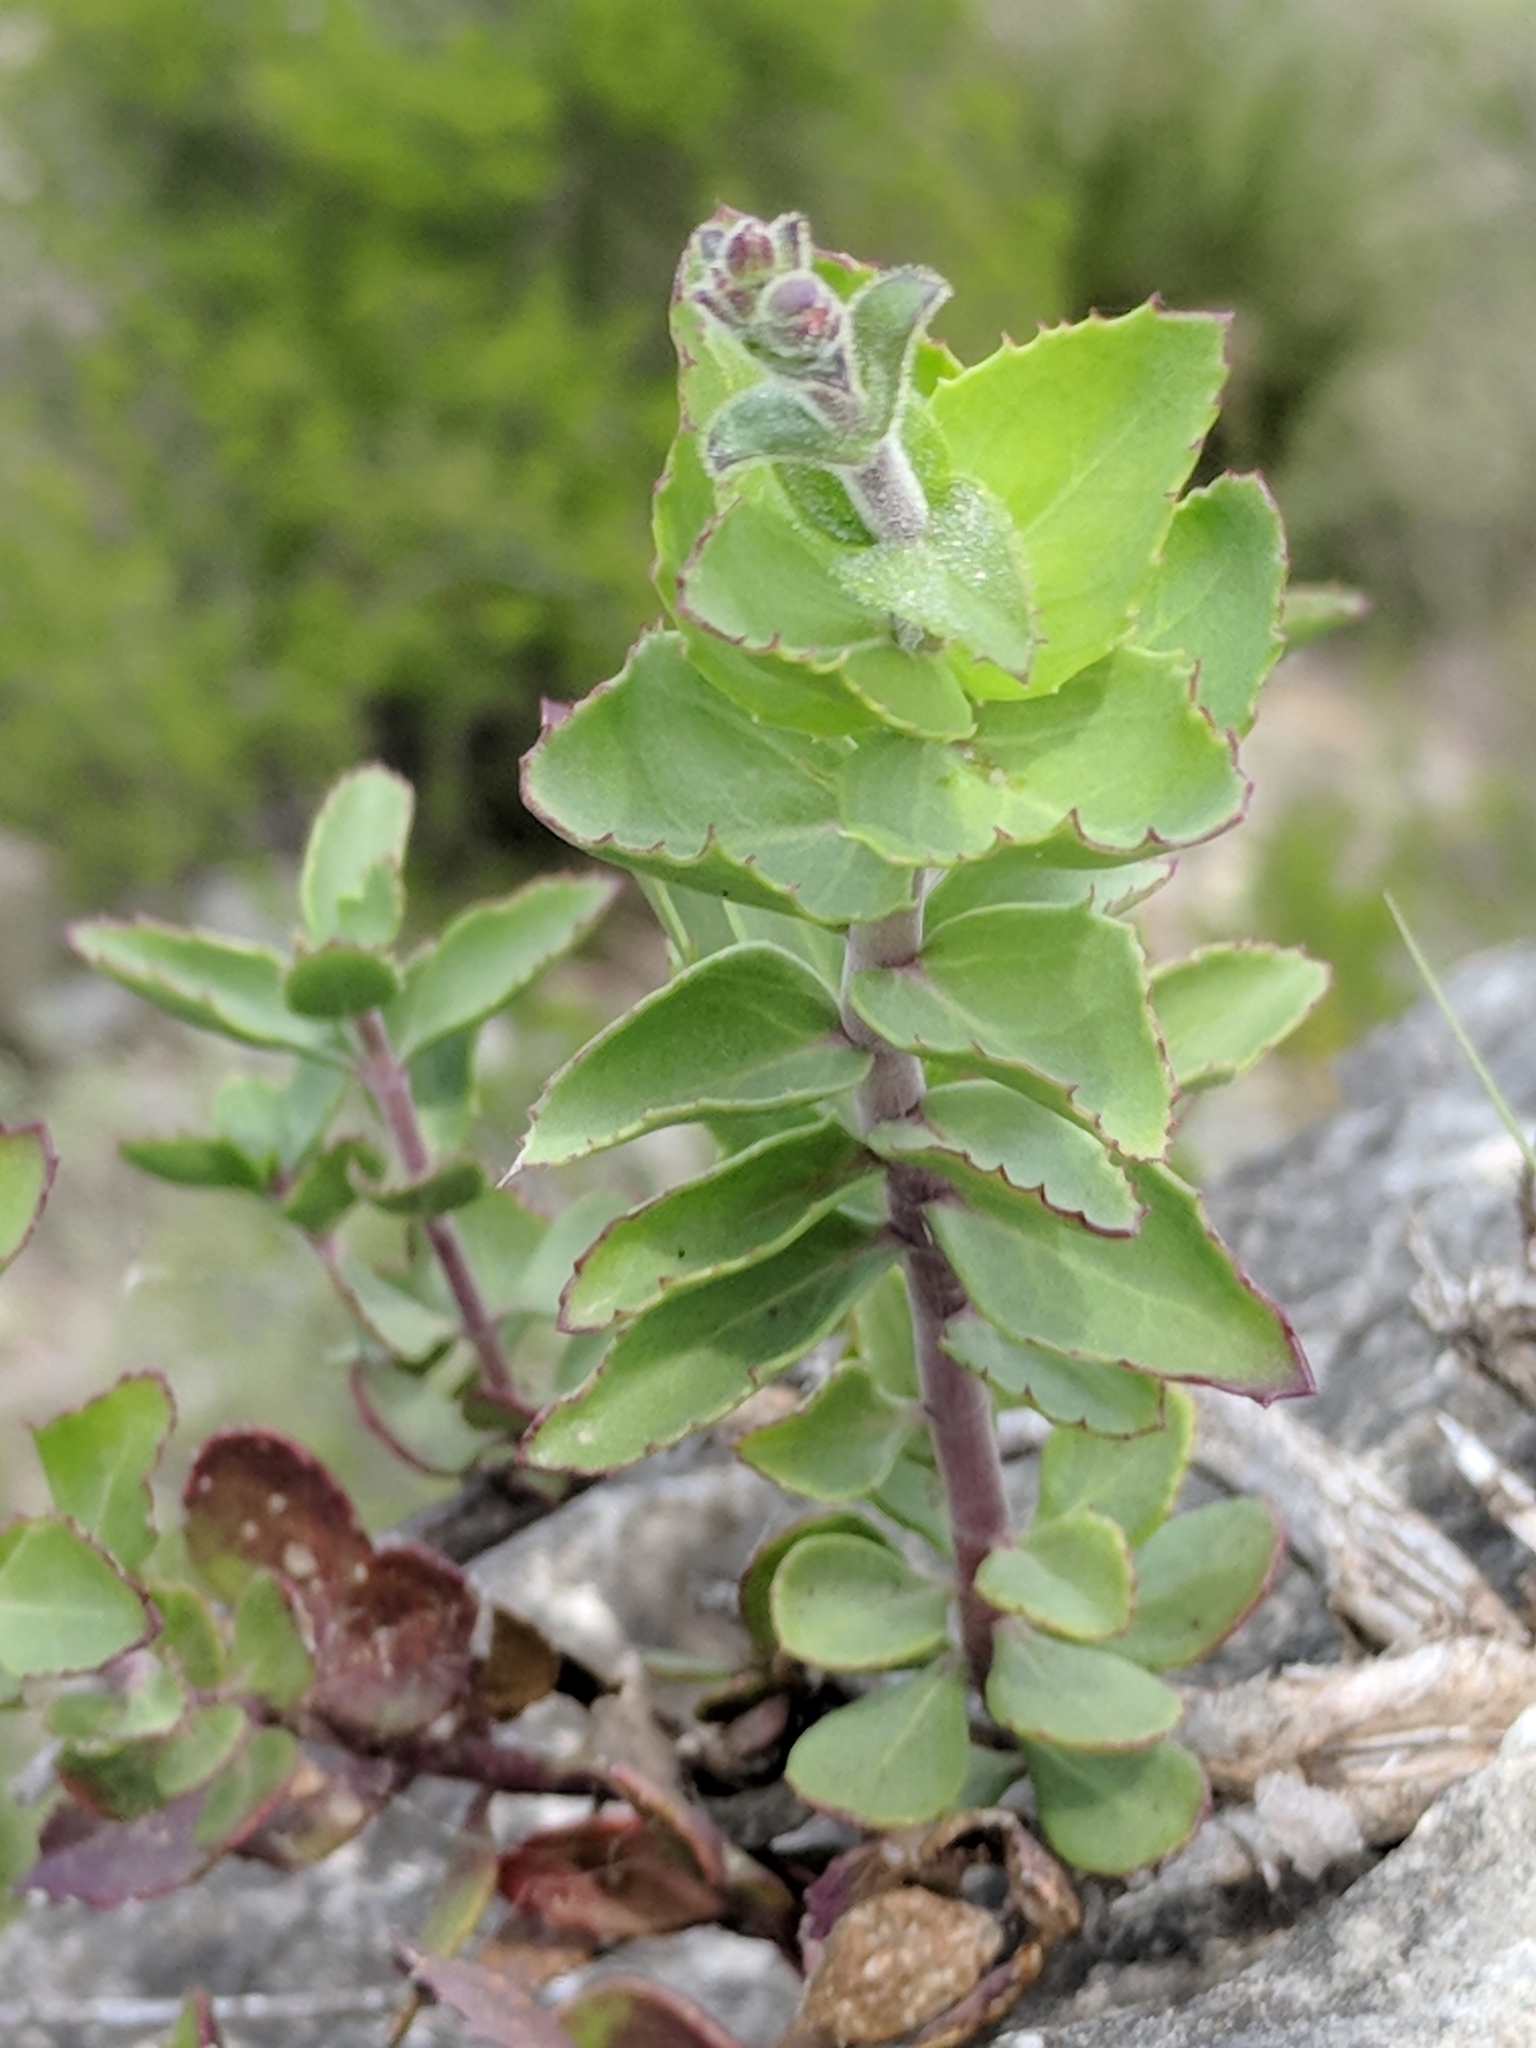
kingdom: Plantae
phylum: Tracheophyta
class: Magnoliopsida
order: Lamiales
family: Plantaginaceae
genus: Penstemon
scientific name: Penstemon baccharifolius
